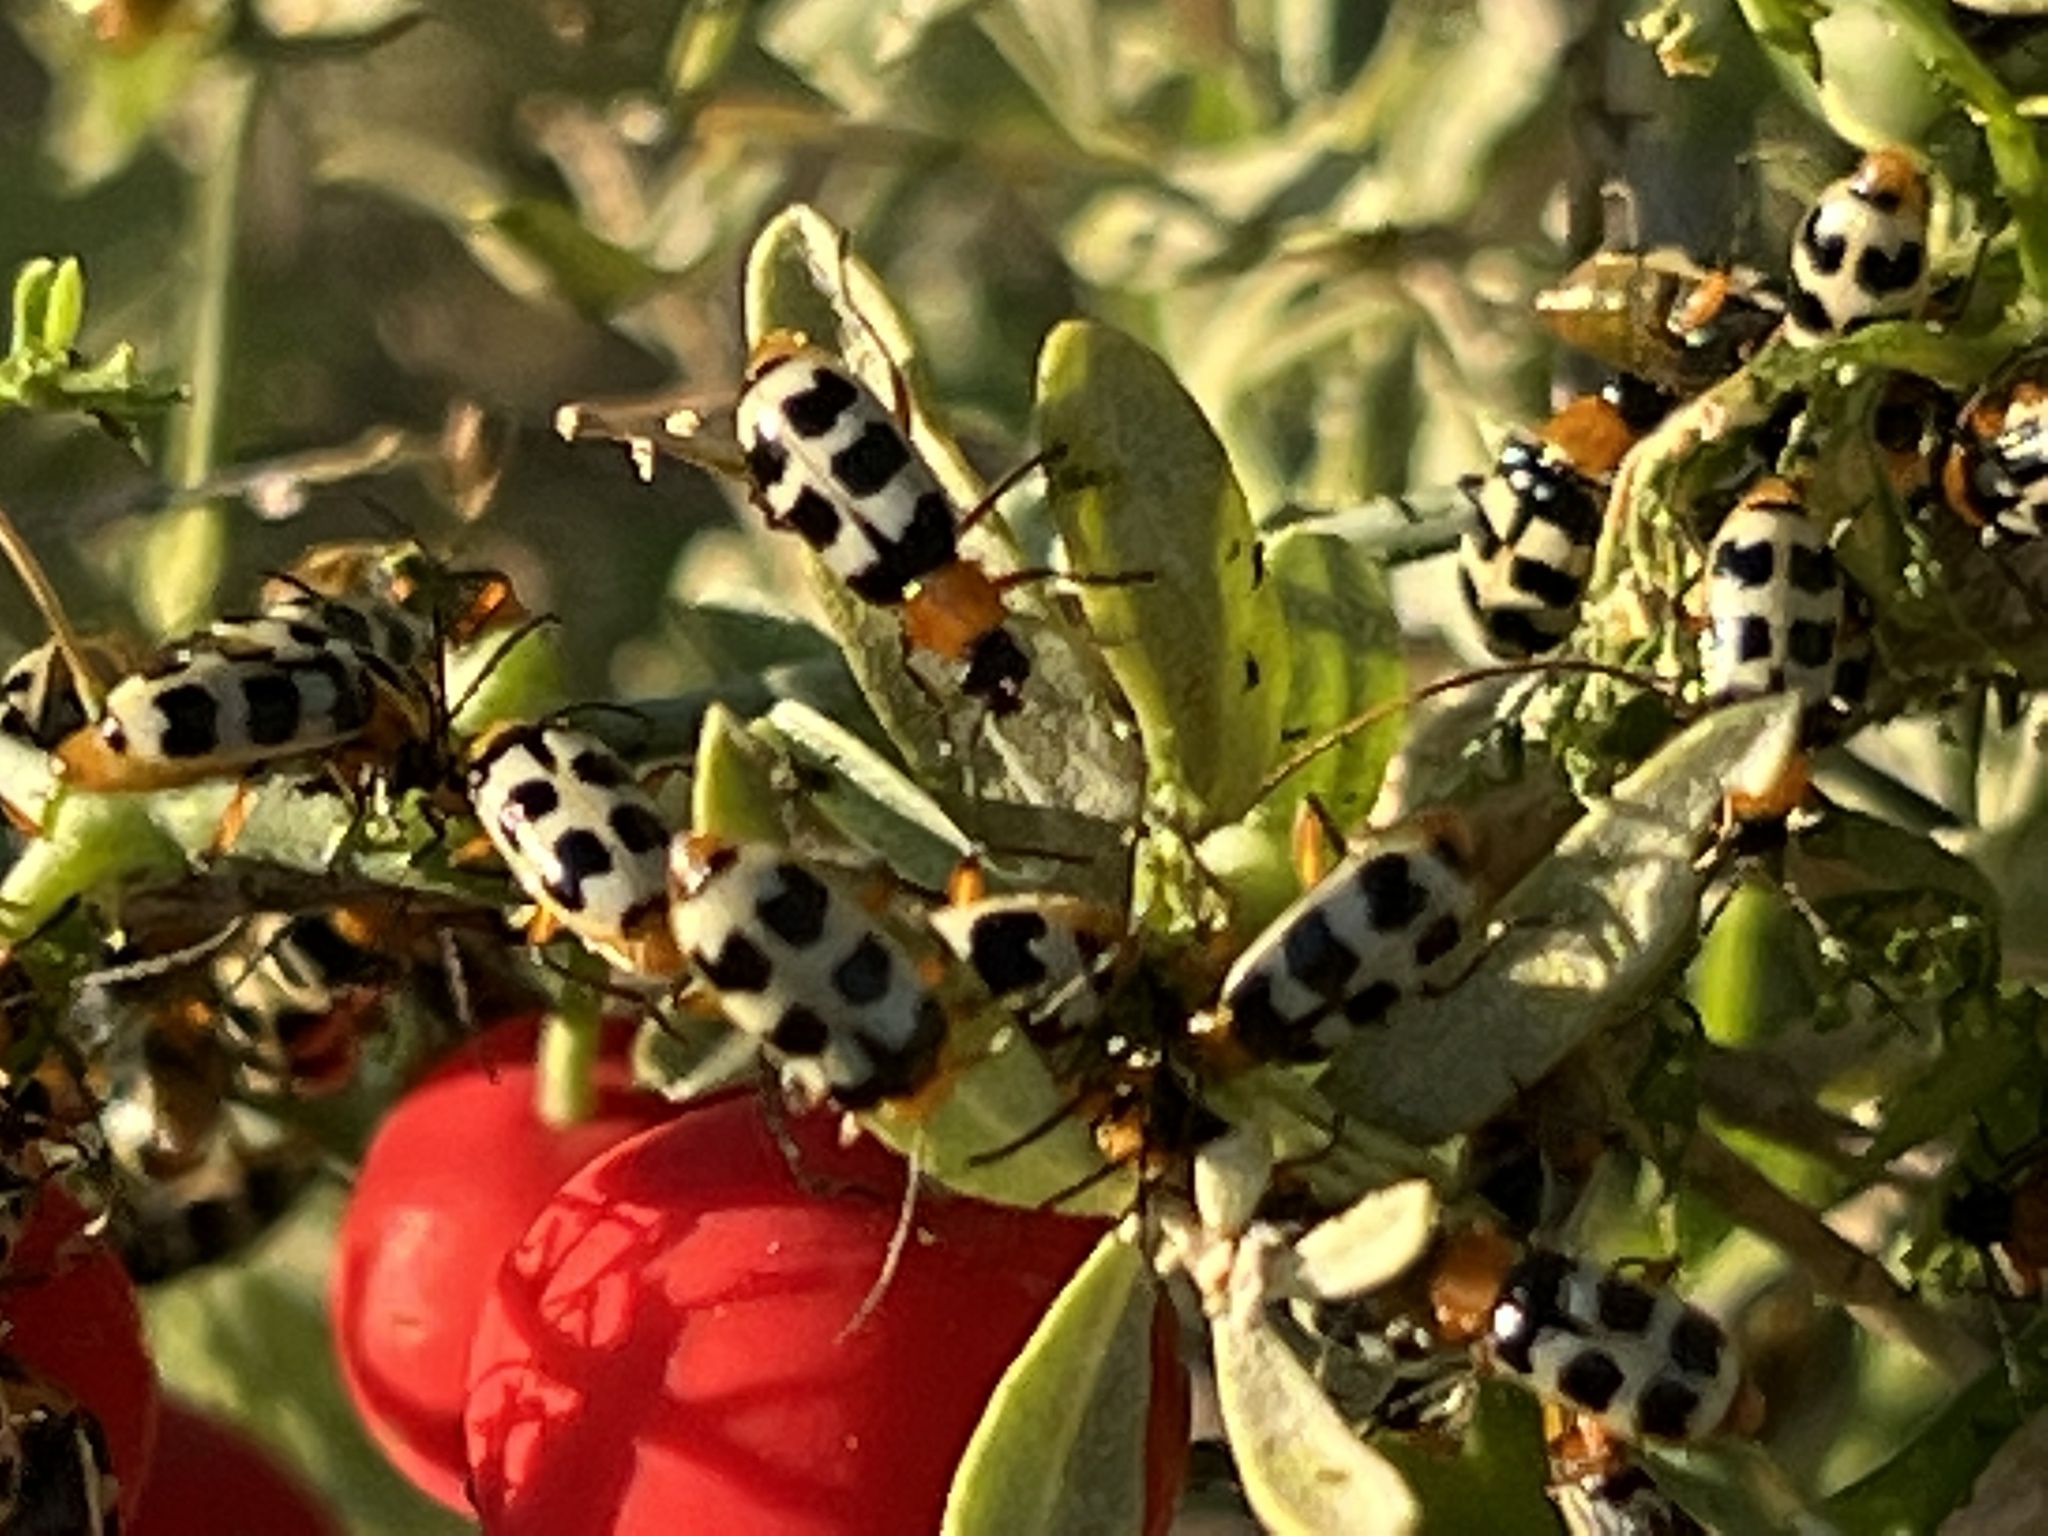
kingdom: Animalia
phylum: Arthropoda
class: Insecta
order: Coleoptera
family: Chrysomelidae
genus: Paranapiacaba
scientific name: Paranapiacaba tricincta
